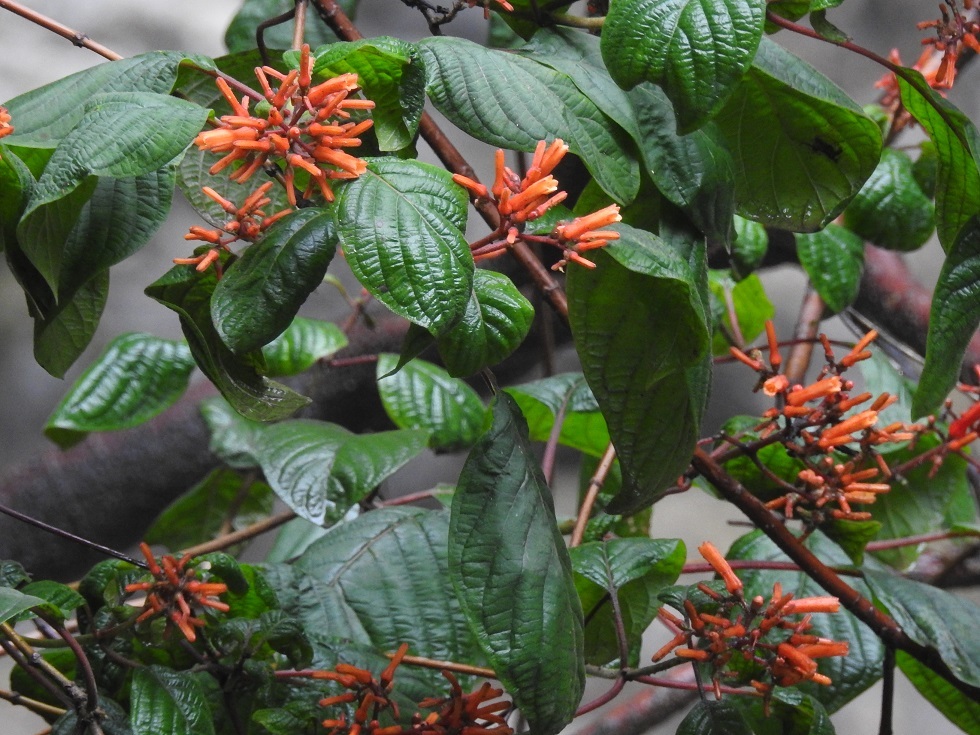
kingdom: Plantae
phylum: Tracheophyta
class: Magnoliopsida
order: Gentianales
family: Rubiaceae
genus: Hamelia
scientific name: Hamelia patens
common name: Redhead
